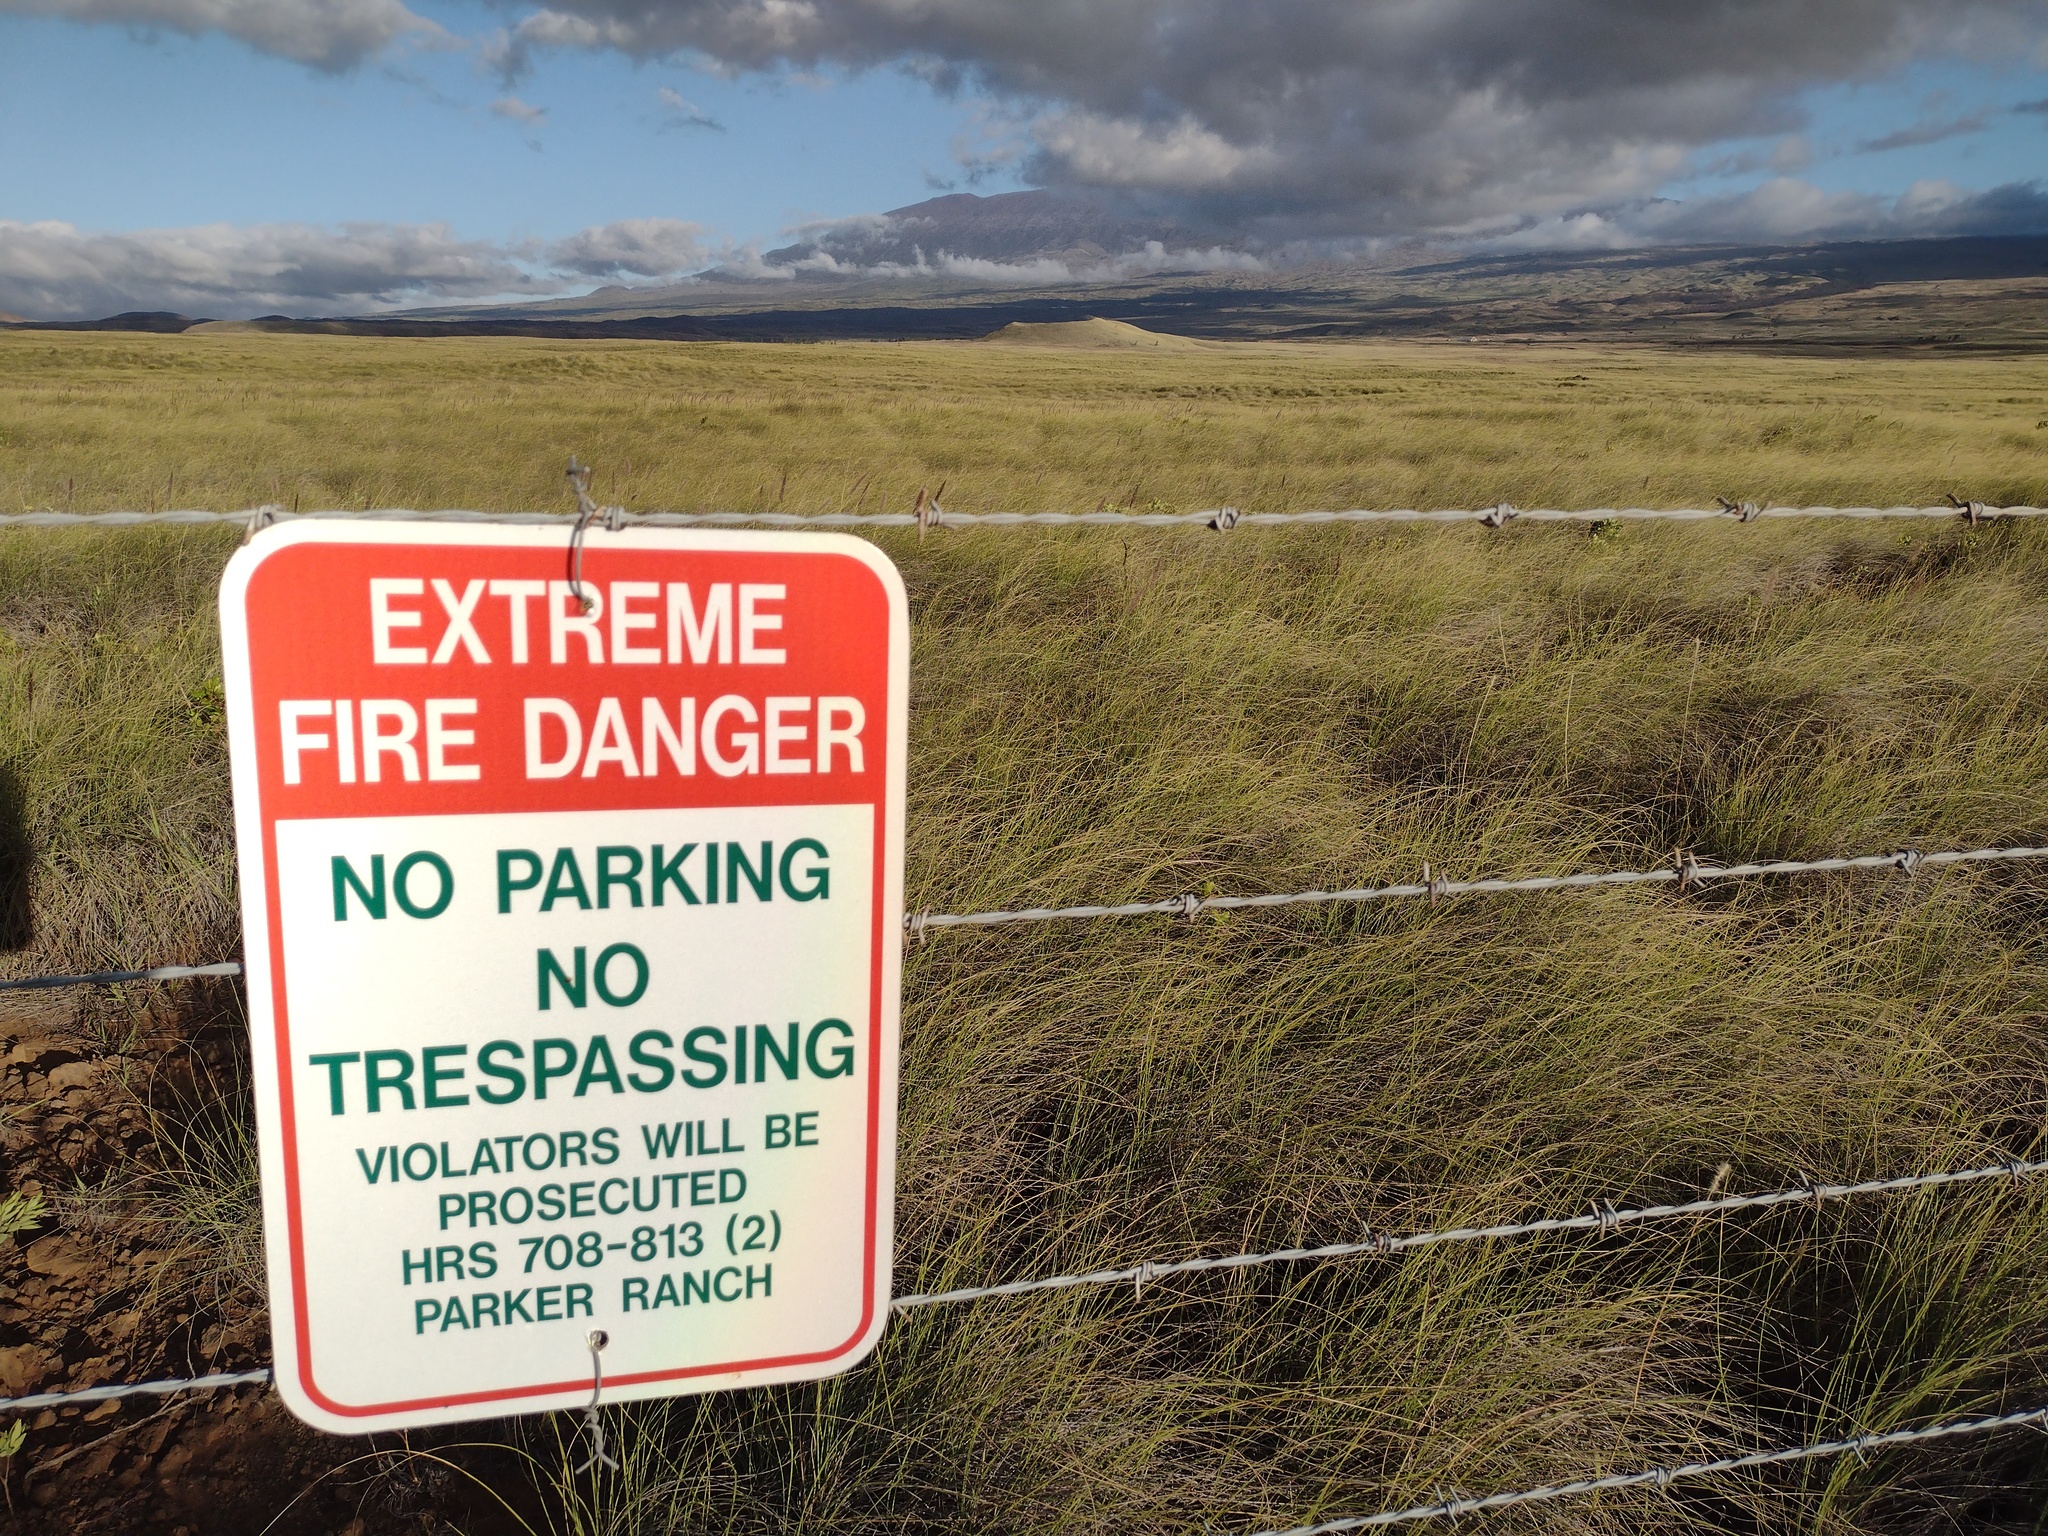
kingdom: Plantae
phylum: Tracheophyta
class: Liliopsida
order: Poales
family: Poaceae
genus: Cenchrus
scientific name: Cenchrus setaceus
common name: Crimson fountaingrass
